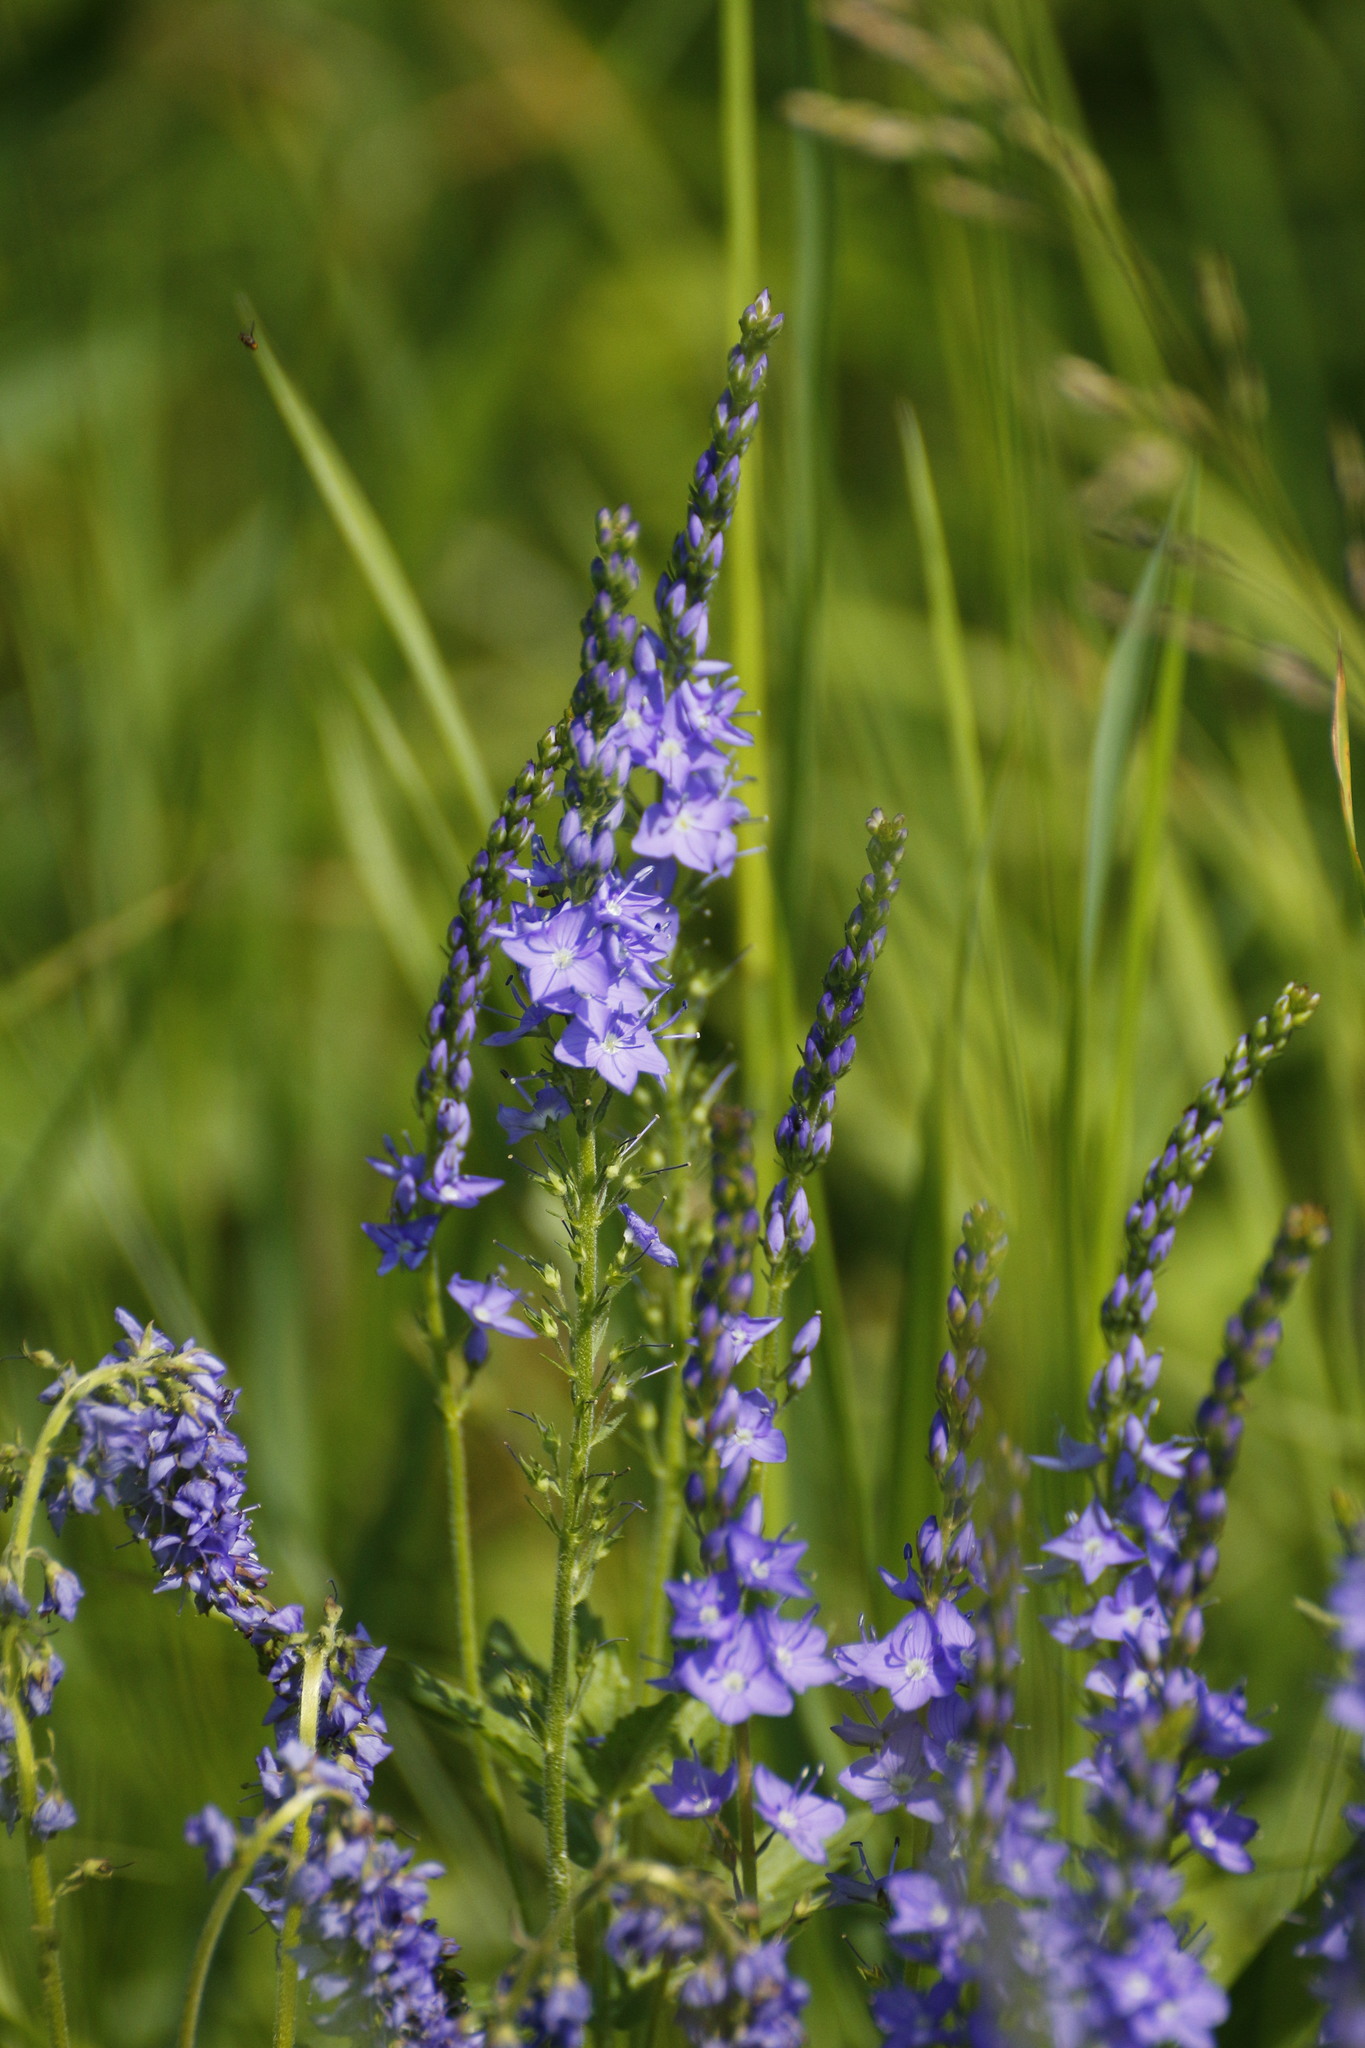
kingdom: Plantae
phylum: Tracheophyta
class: Magnoliopsida
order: Lamiales
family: Plantaginaceae
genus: Veronica
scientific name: Veronica teucrium
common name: Large speedwell
